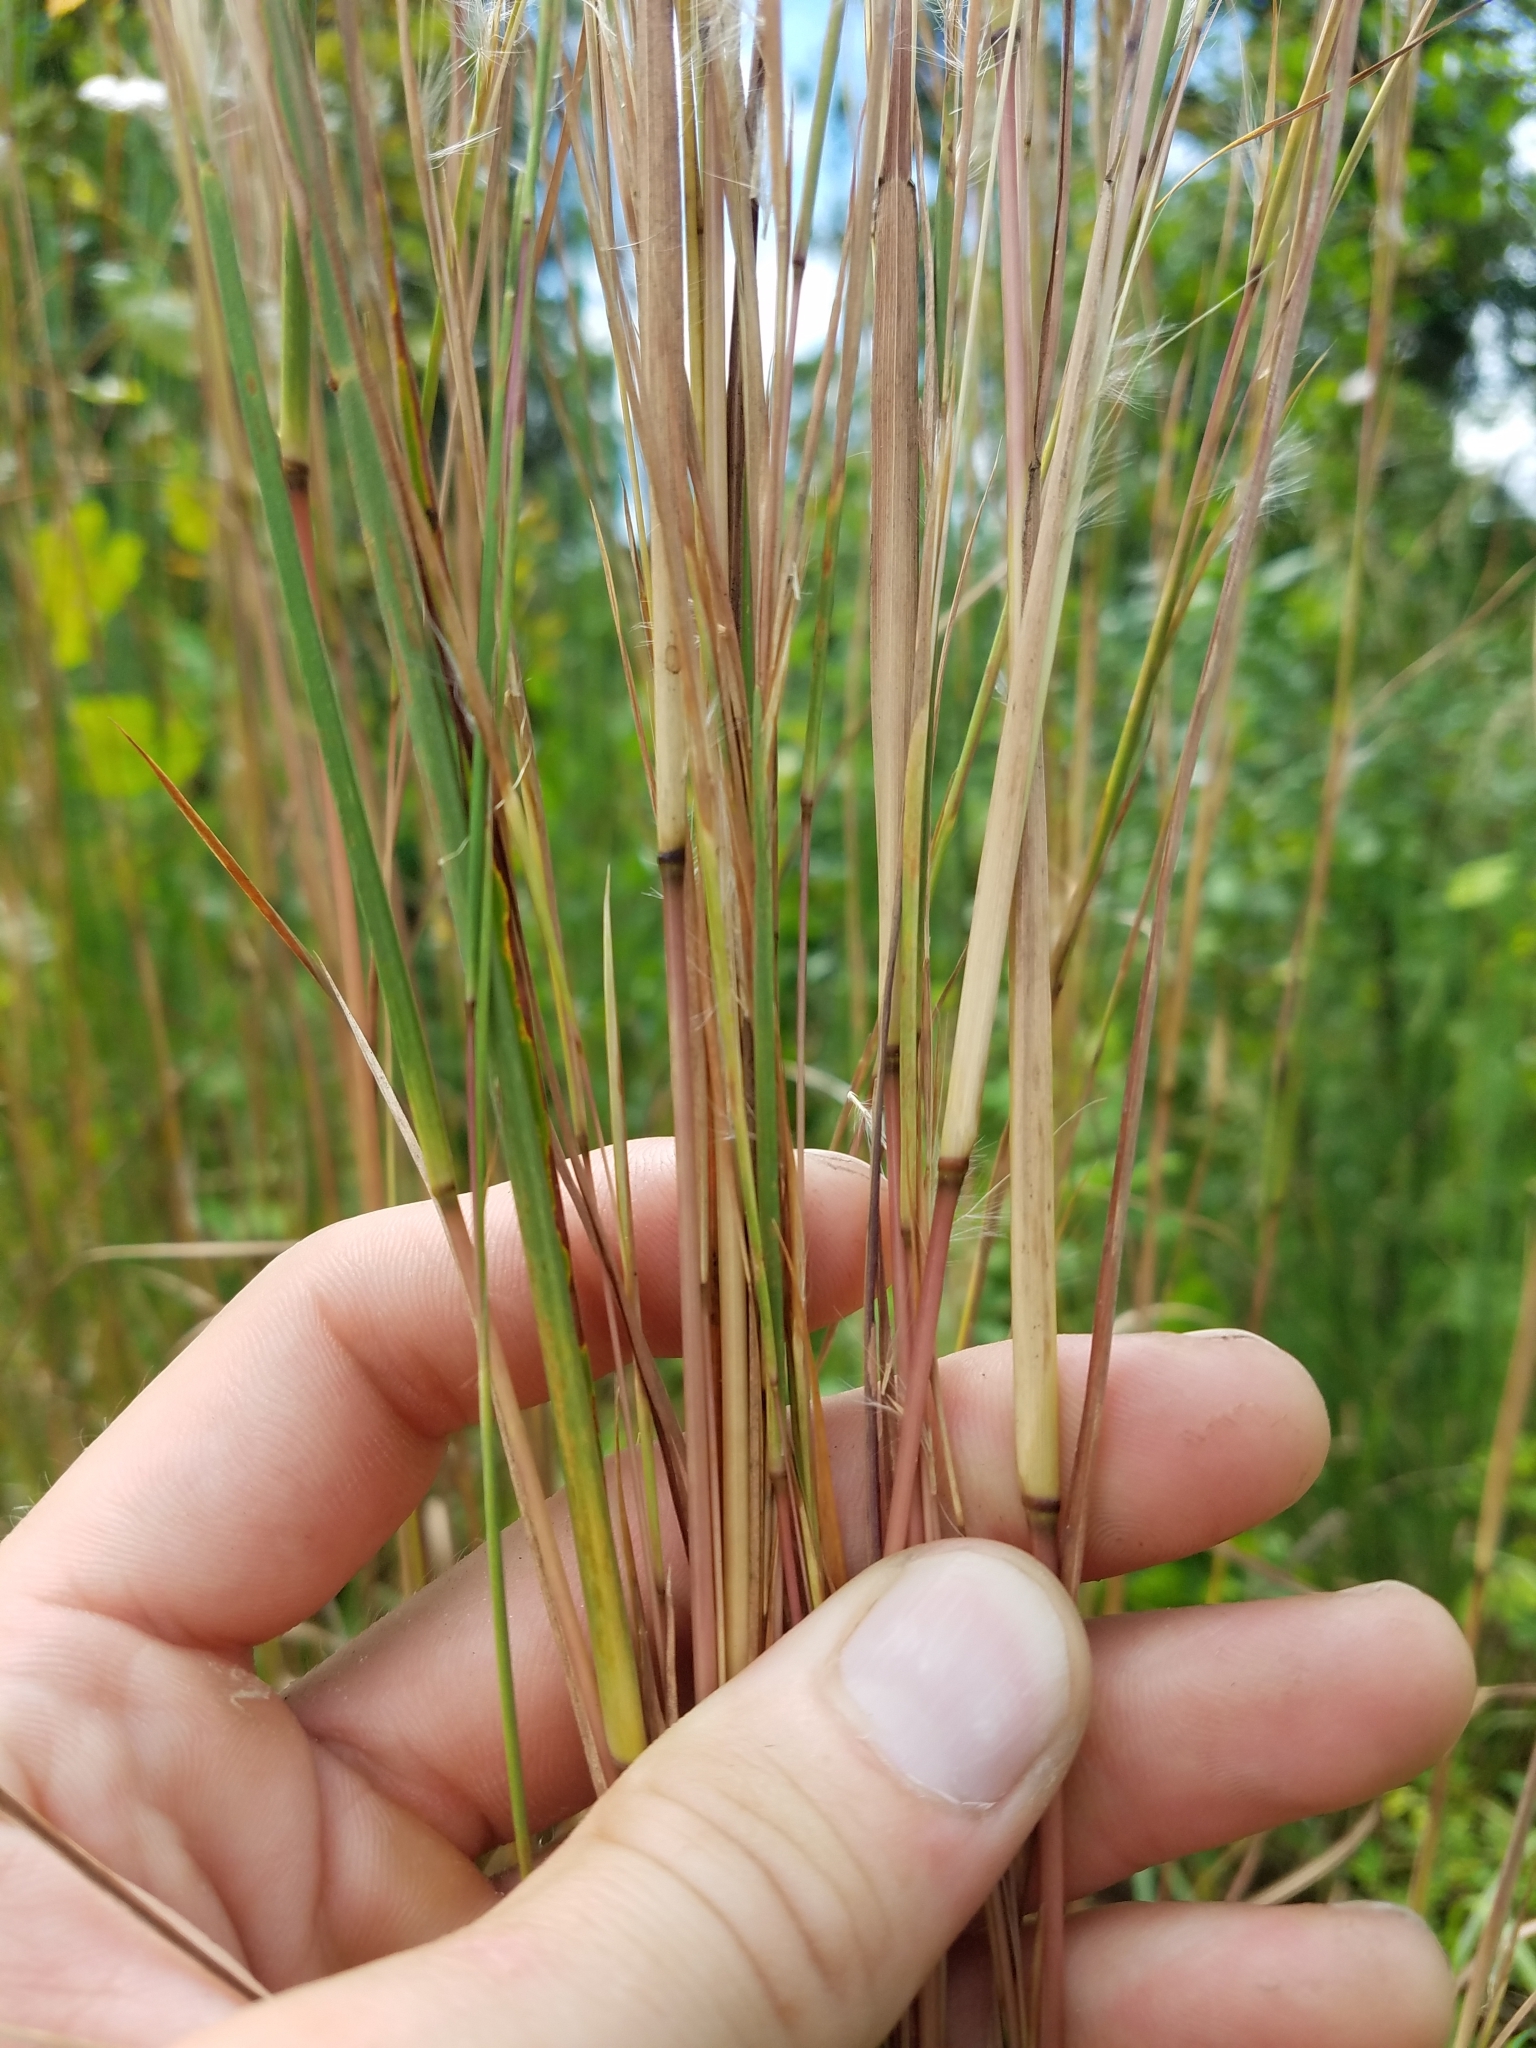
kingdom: Plantae
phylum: Tracheophyta
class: Liliopsida
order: Poales
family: Poaceae
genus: Andropogon
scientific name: Andropogon virginicus
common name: Broomsedge bluestem
